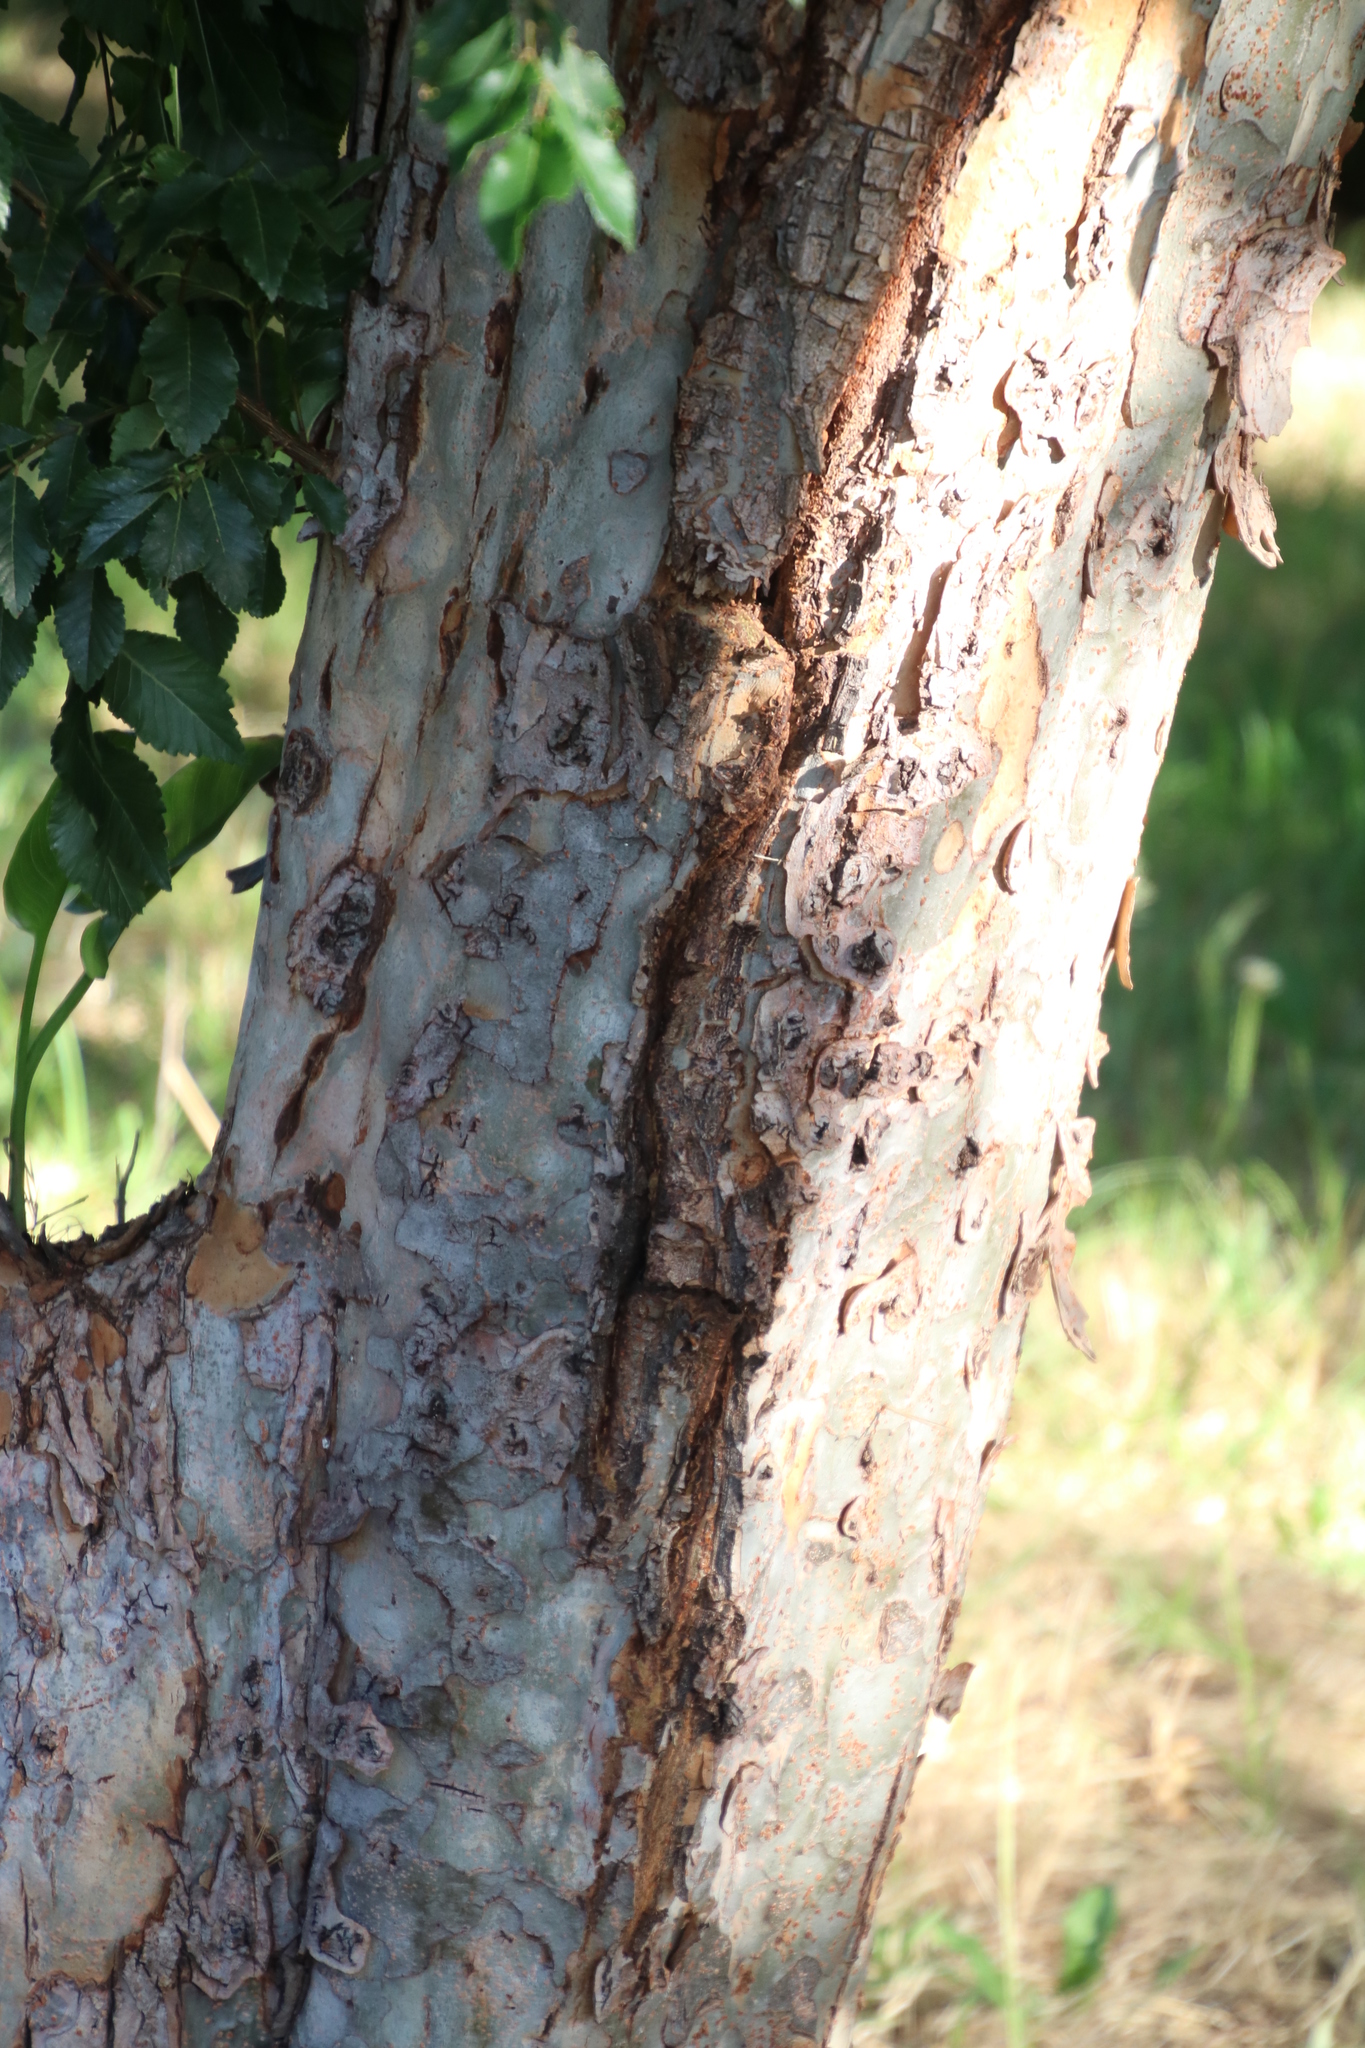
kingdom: Plantae
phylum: Tracheophyta
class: Magnoliopsida
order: Rosales
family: Ulmaceae
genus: Ulmus
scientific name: Ulmus parvifolia
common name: Chinese elm
